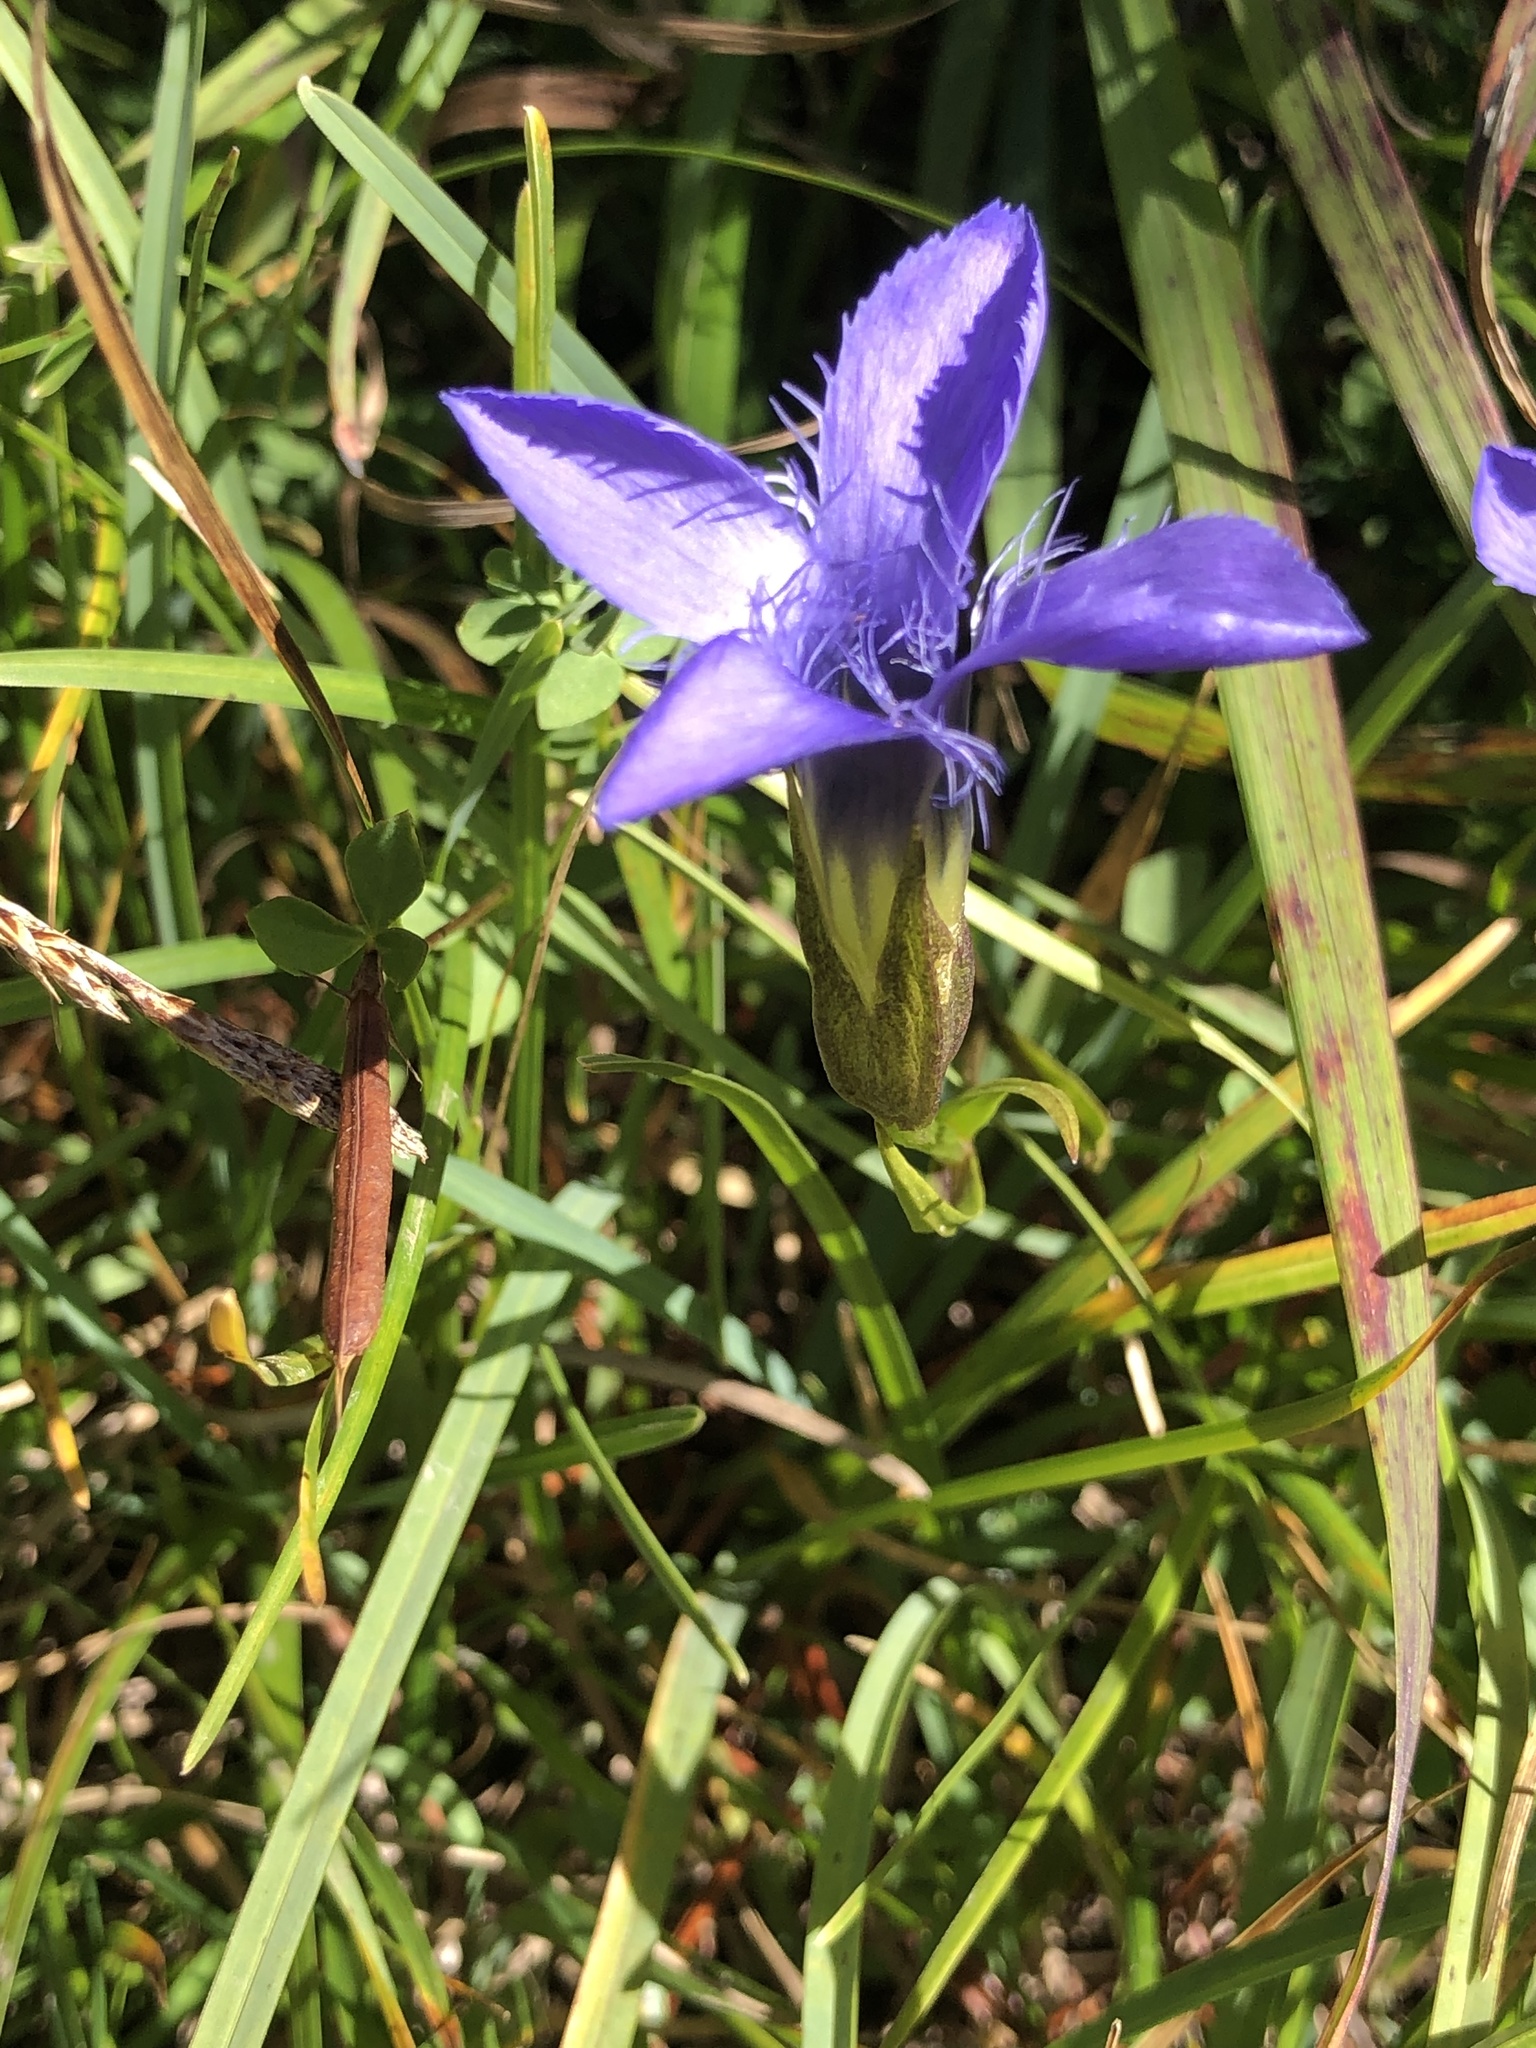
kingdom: Plantae
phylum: Tracheophyta
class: Magnoliopsida
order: Gentianales
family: Gentianaceae
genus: Gentianopsis
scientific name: Gentianopsis ciliata
